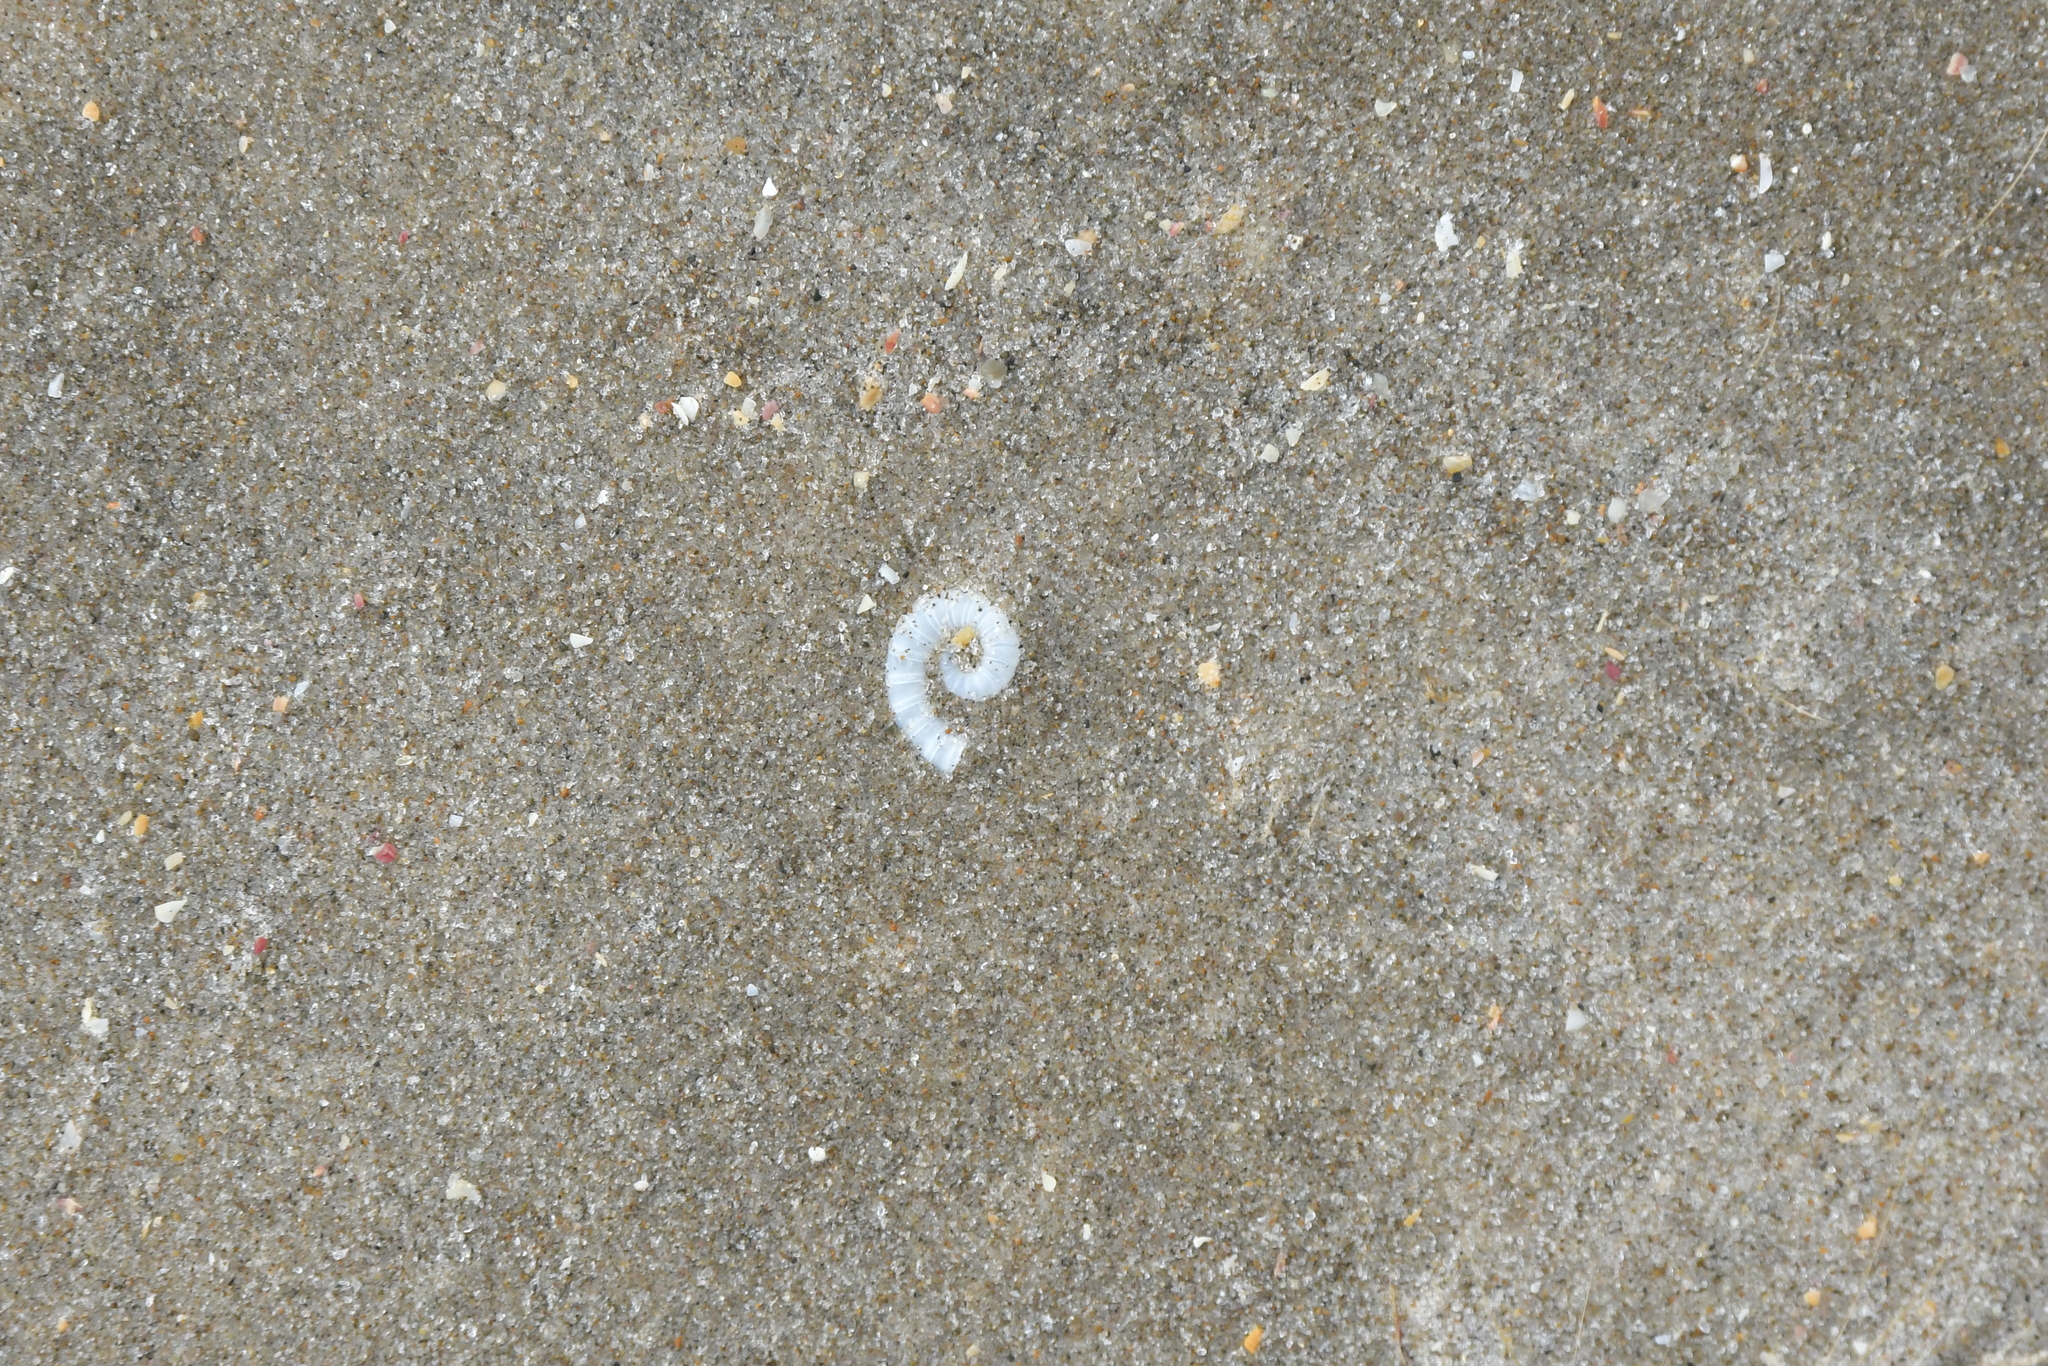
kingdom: Animalia
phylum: Mollusca
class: Cephalopoda
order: Spirulida
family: Spirulidae
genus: Spirula
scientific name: Spirula spirula
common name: Ram's horn squid
